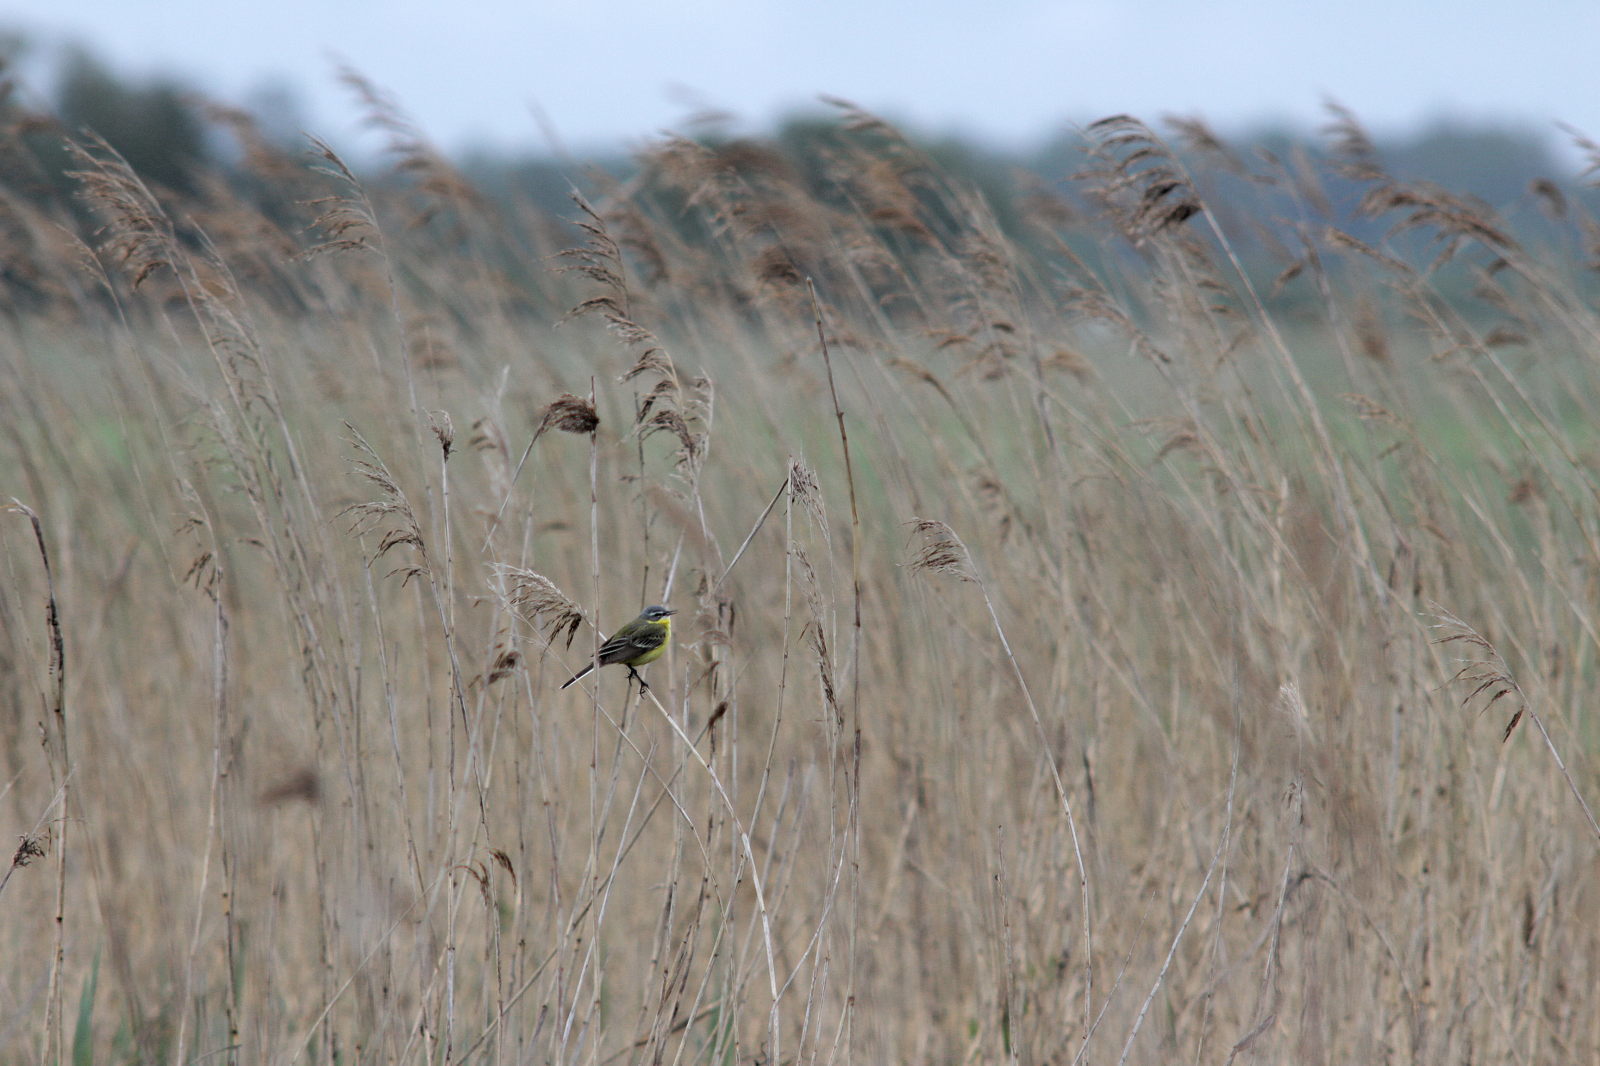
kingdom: Animalia
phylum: Chordata
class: Aves
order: Passeriformes
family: Motacillidae
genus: Motacilla
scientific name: Motacilla flava
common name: Western yellow wagtail
